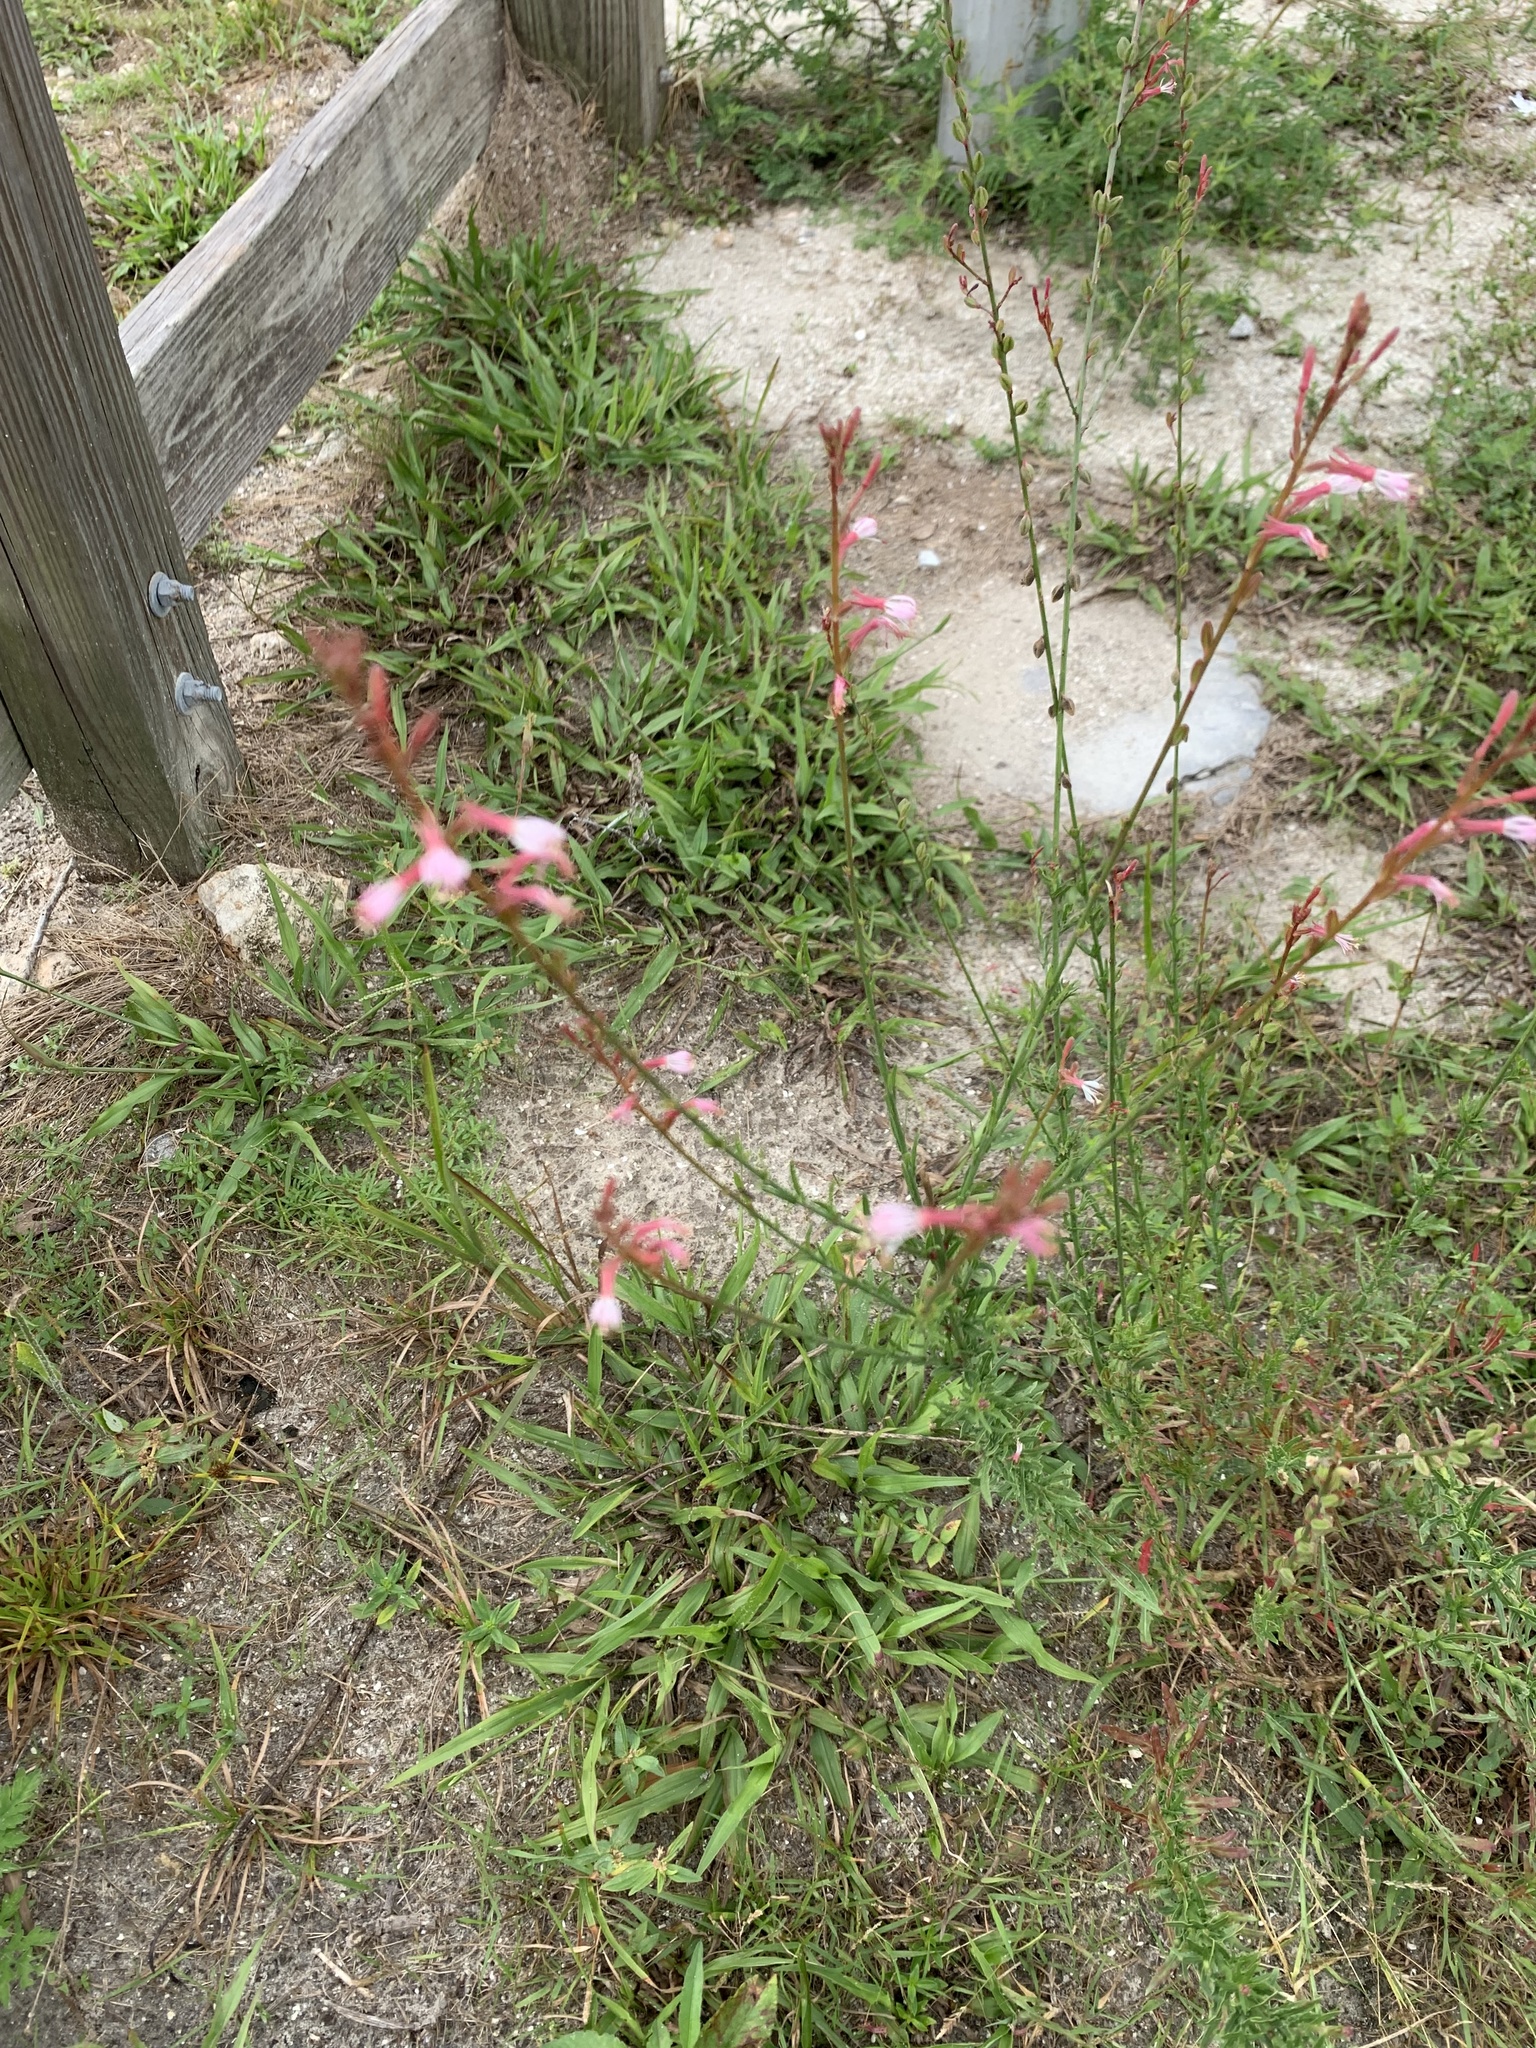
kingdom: Plantae
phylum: Tracheophyta
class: Magnoliopsida
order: Myrtales
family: Onagraceae
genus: Oenothera
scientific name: Oenothera simulans
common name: Southern beeblossom
